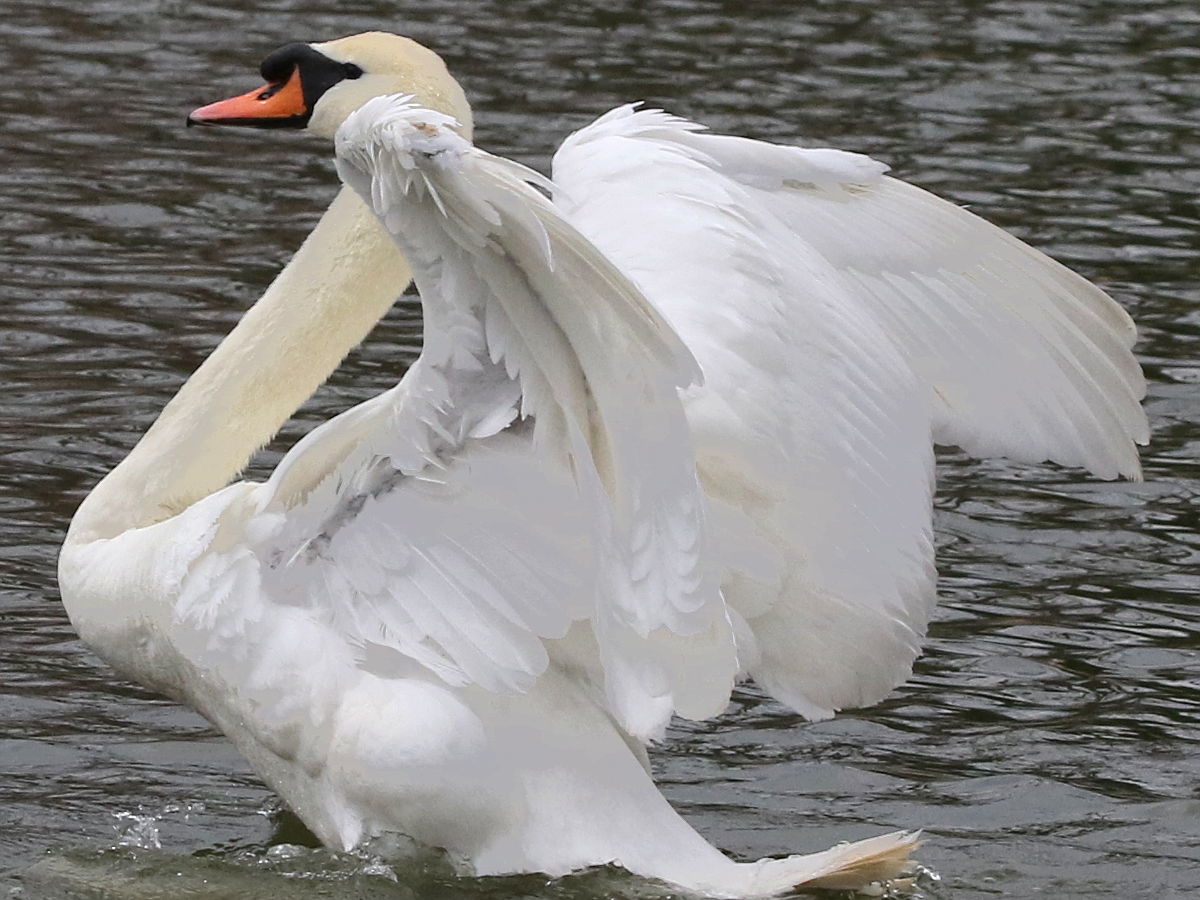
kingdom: Animalia
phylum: Chordata
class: Aves
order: Anseriformes
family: Anatidae
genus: Cygnus
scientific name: Cygnus olor
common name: Mute swan
